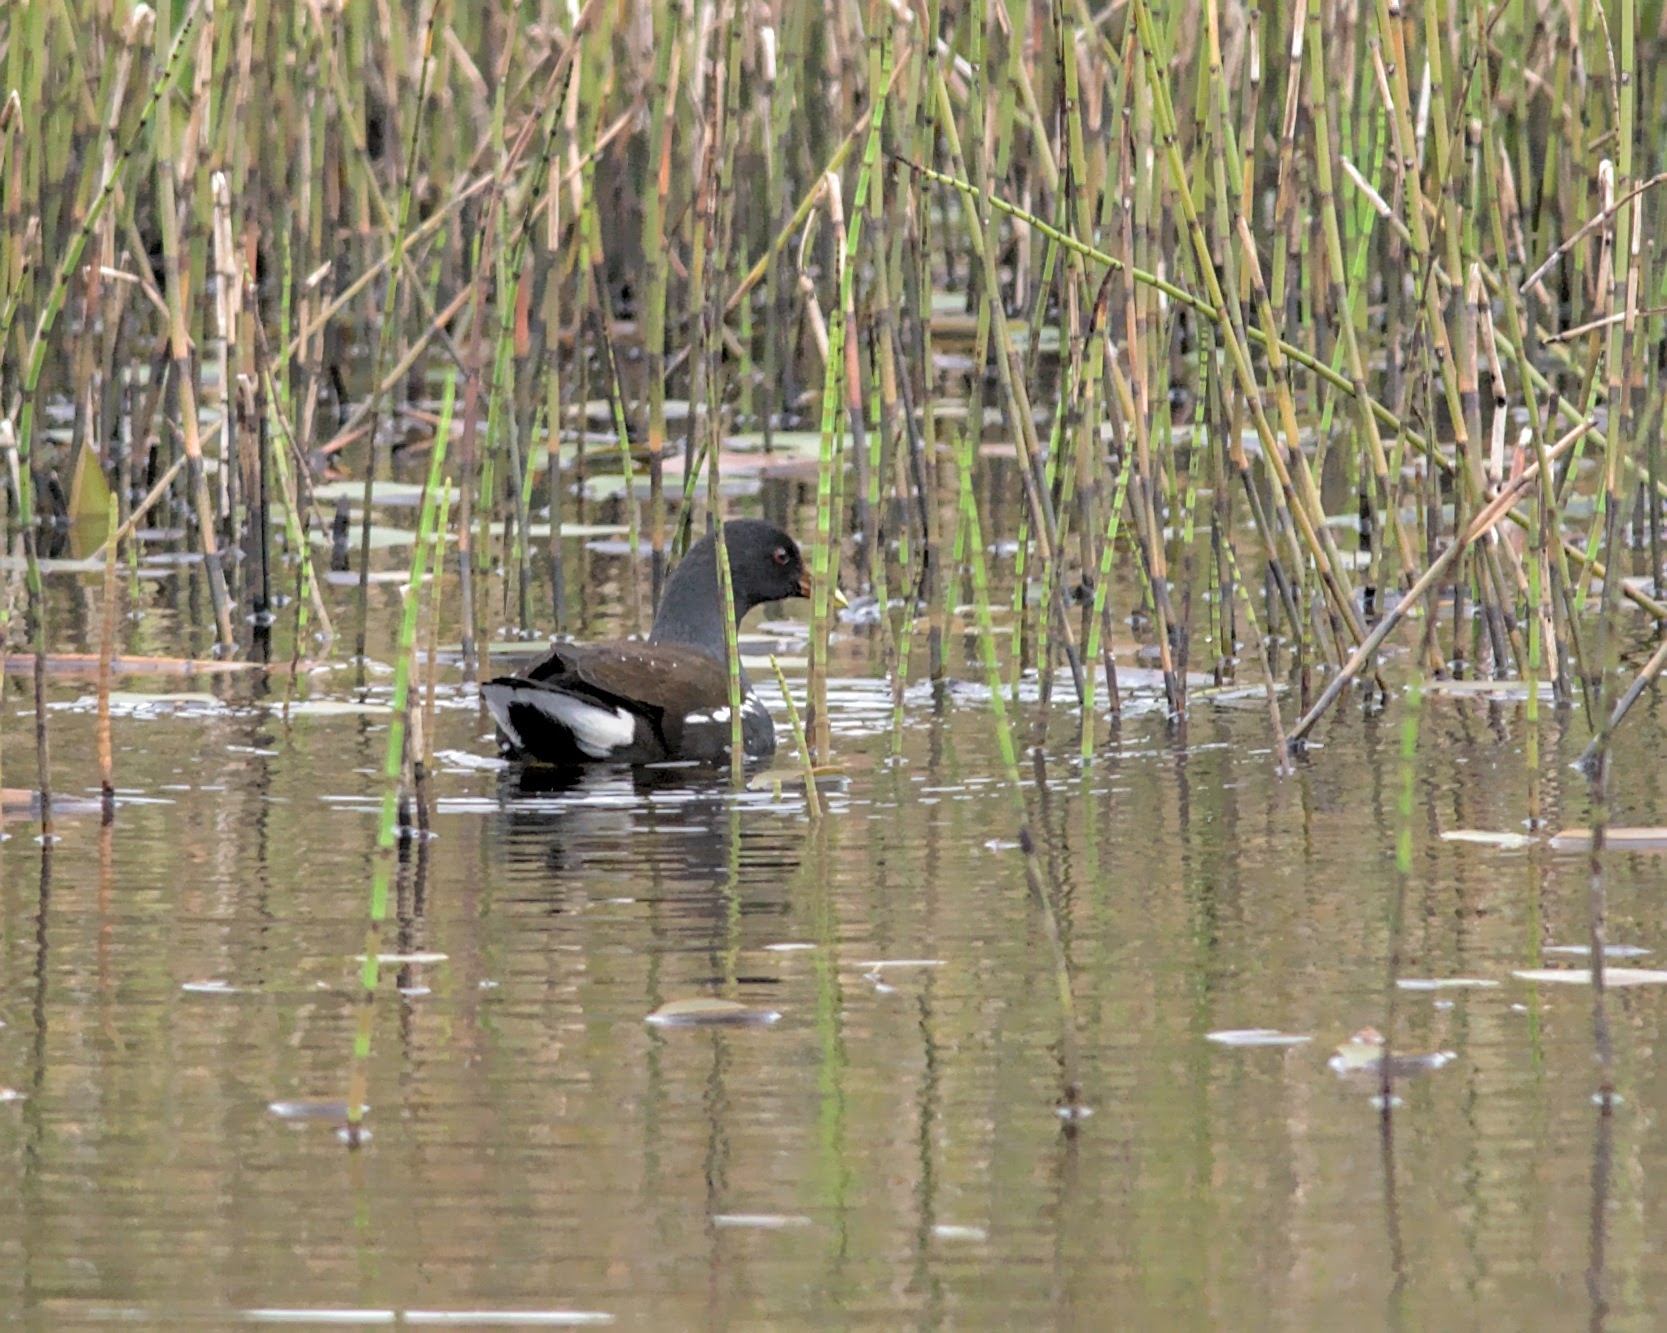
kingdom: Animalia
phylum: Chordata
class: Aves
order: Gruiformes
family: Rallidae
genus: Gallinula
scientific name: Gallinula chloropus
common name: Common moorhen
